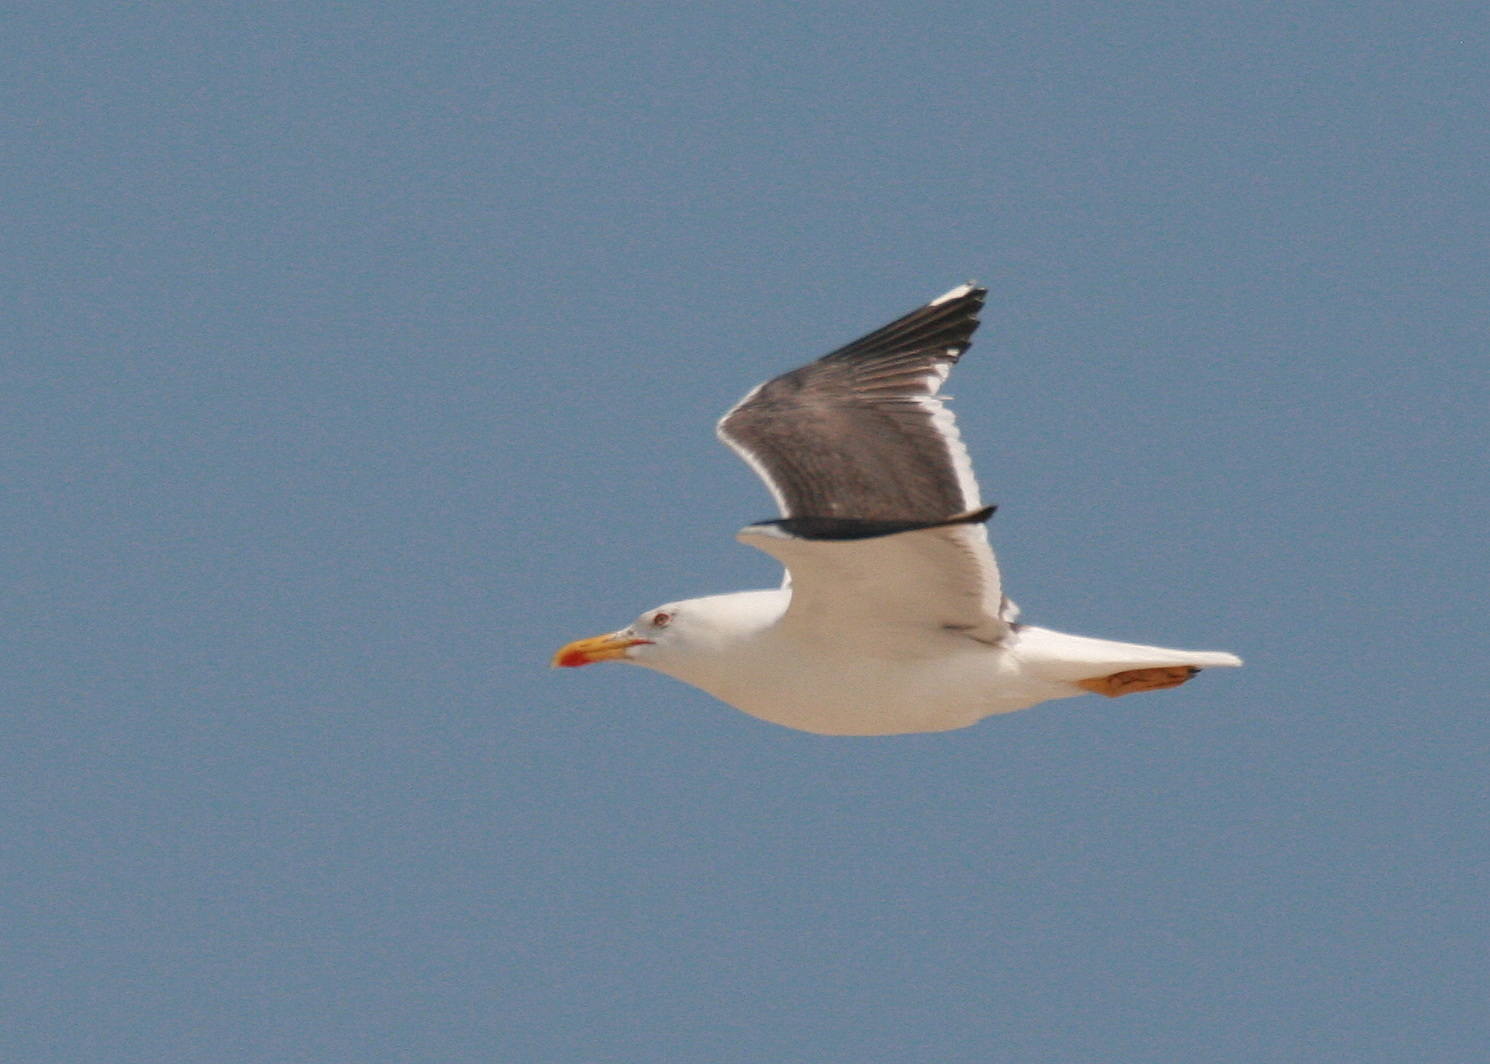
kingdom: Animalia
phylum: Chordata
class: Aves
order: Charadriiformes
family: Laridae
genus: Larus
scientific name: Larus fuscus
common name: Lesser black-backed gull
